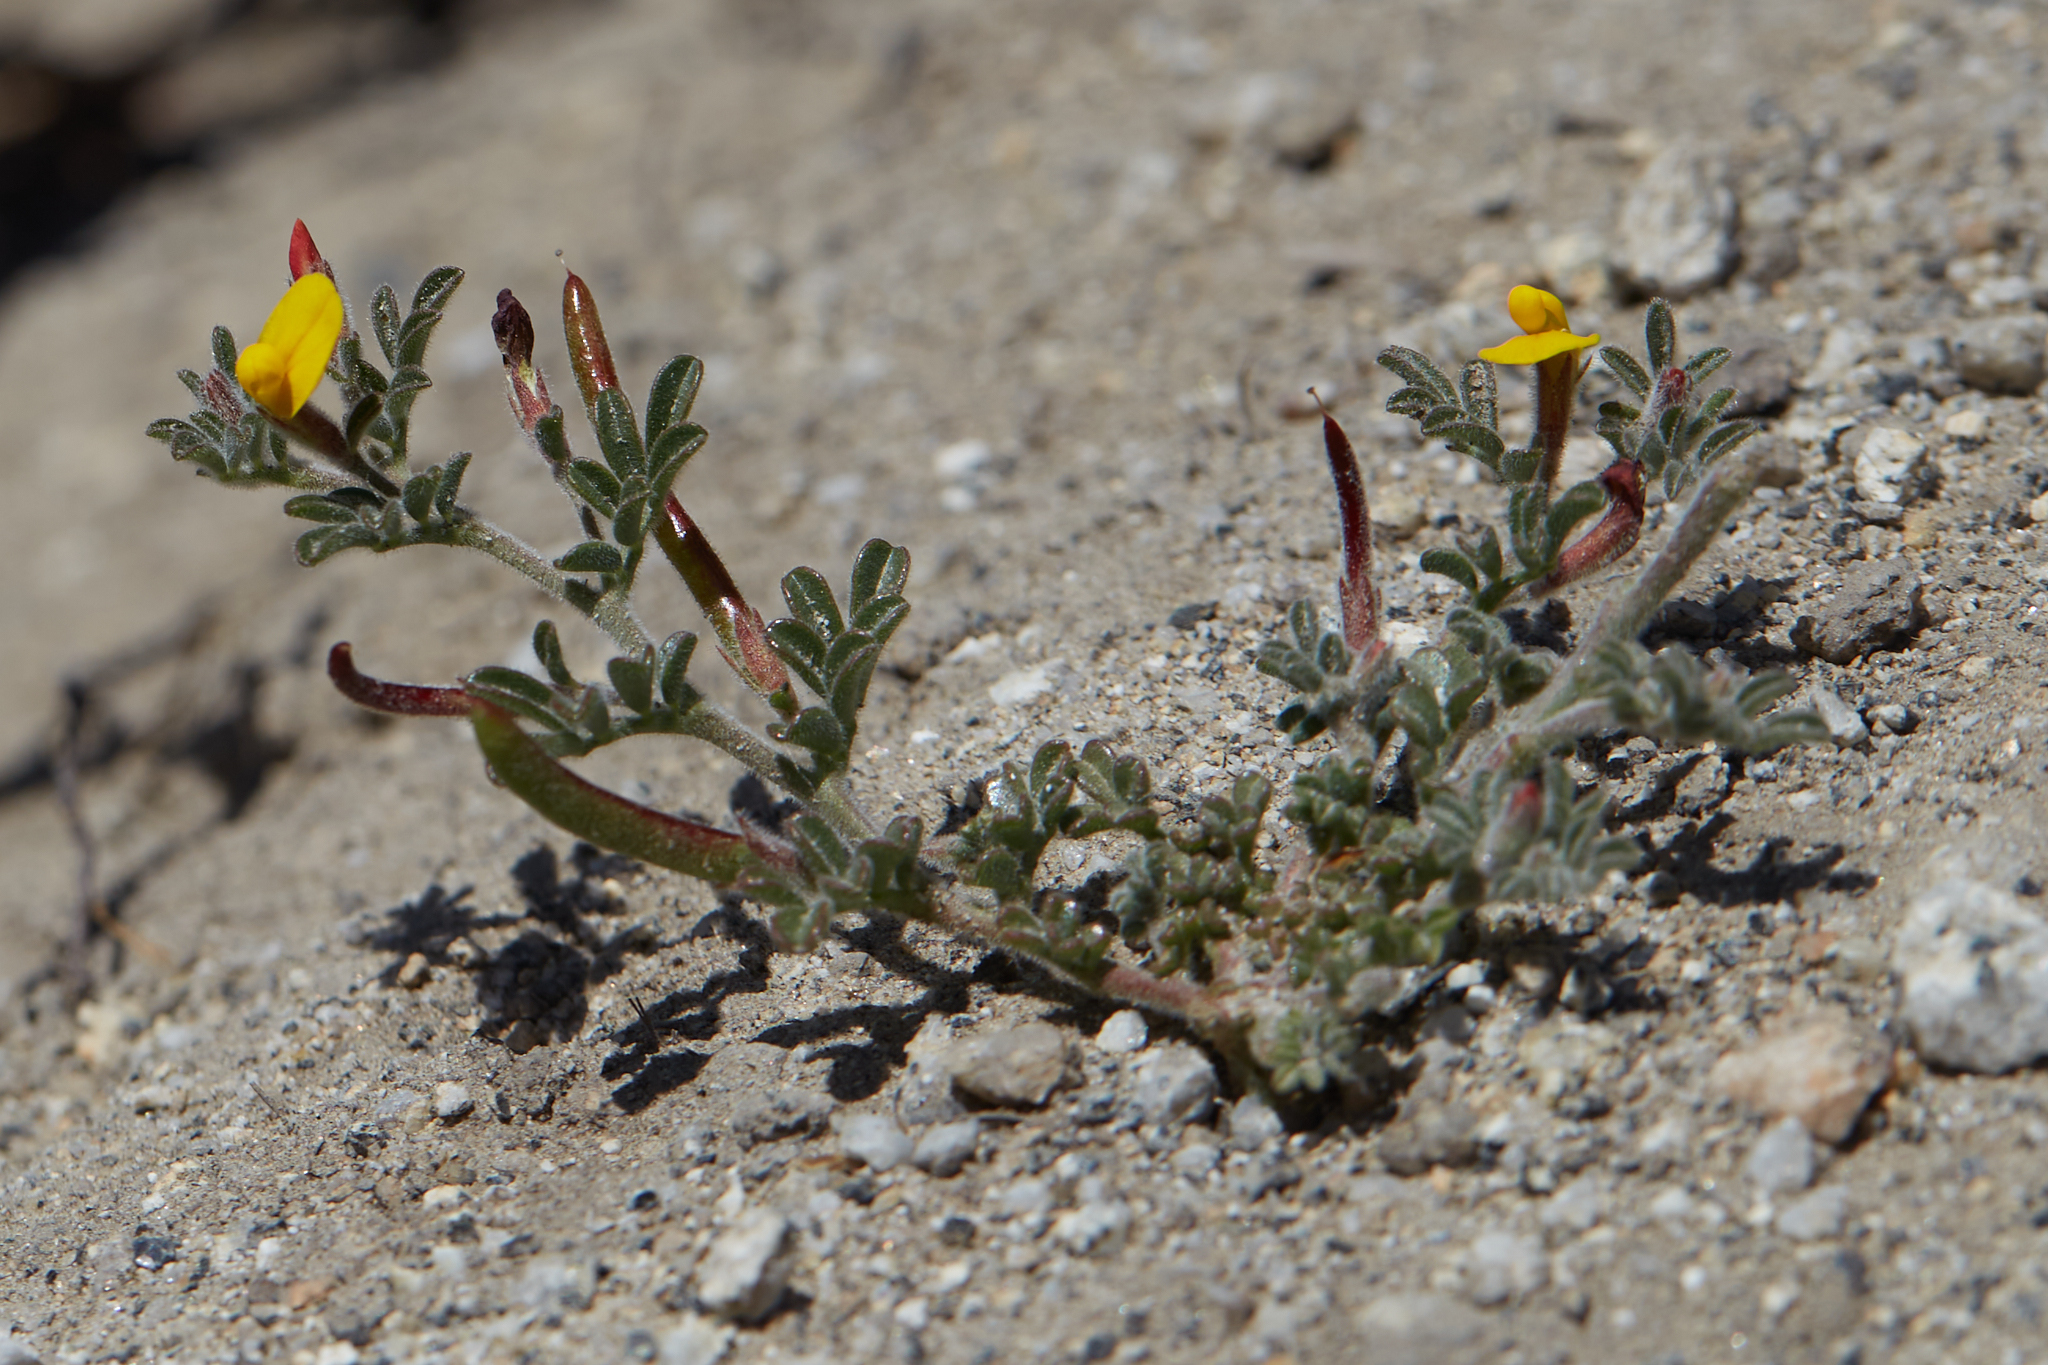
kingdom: Plantae
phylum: Tracheophyta
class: Magnoliopsida
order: Fabales
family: Fabaceae
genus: Acmispon
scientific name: Acmispon strigosus
